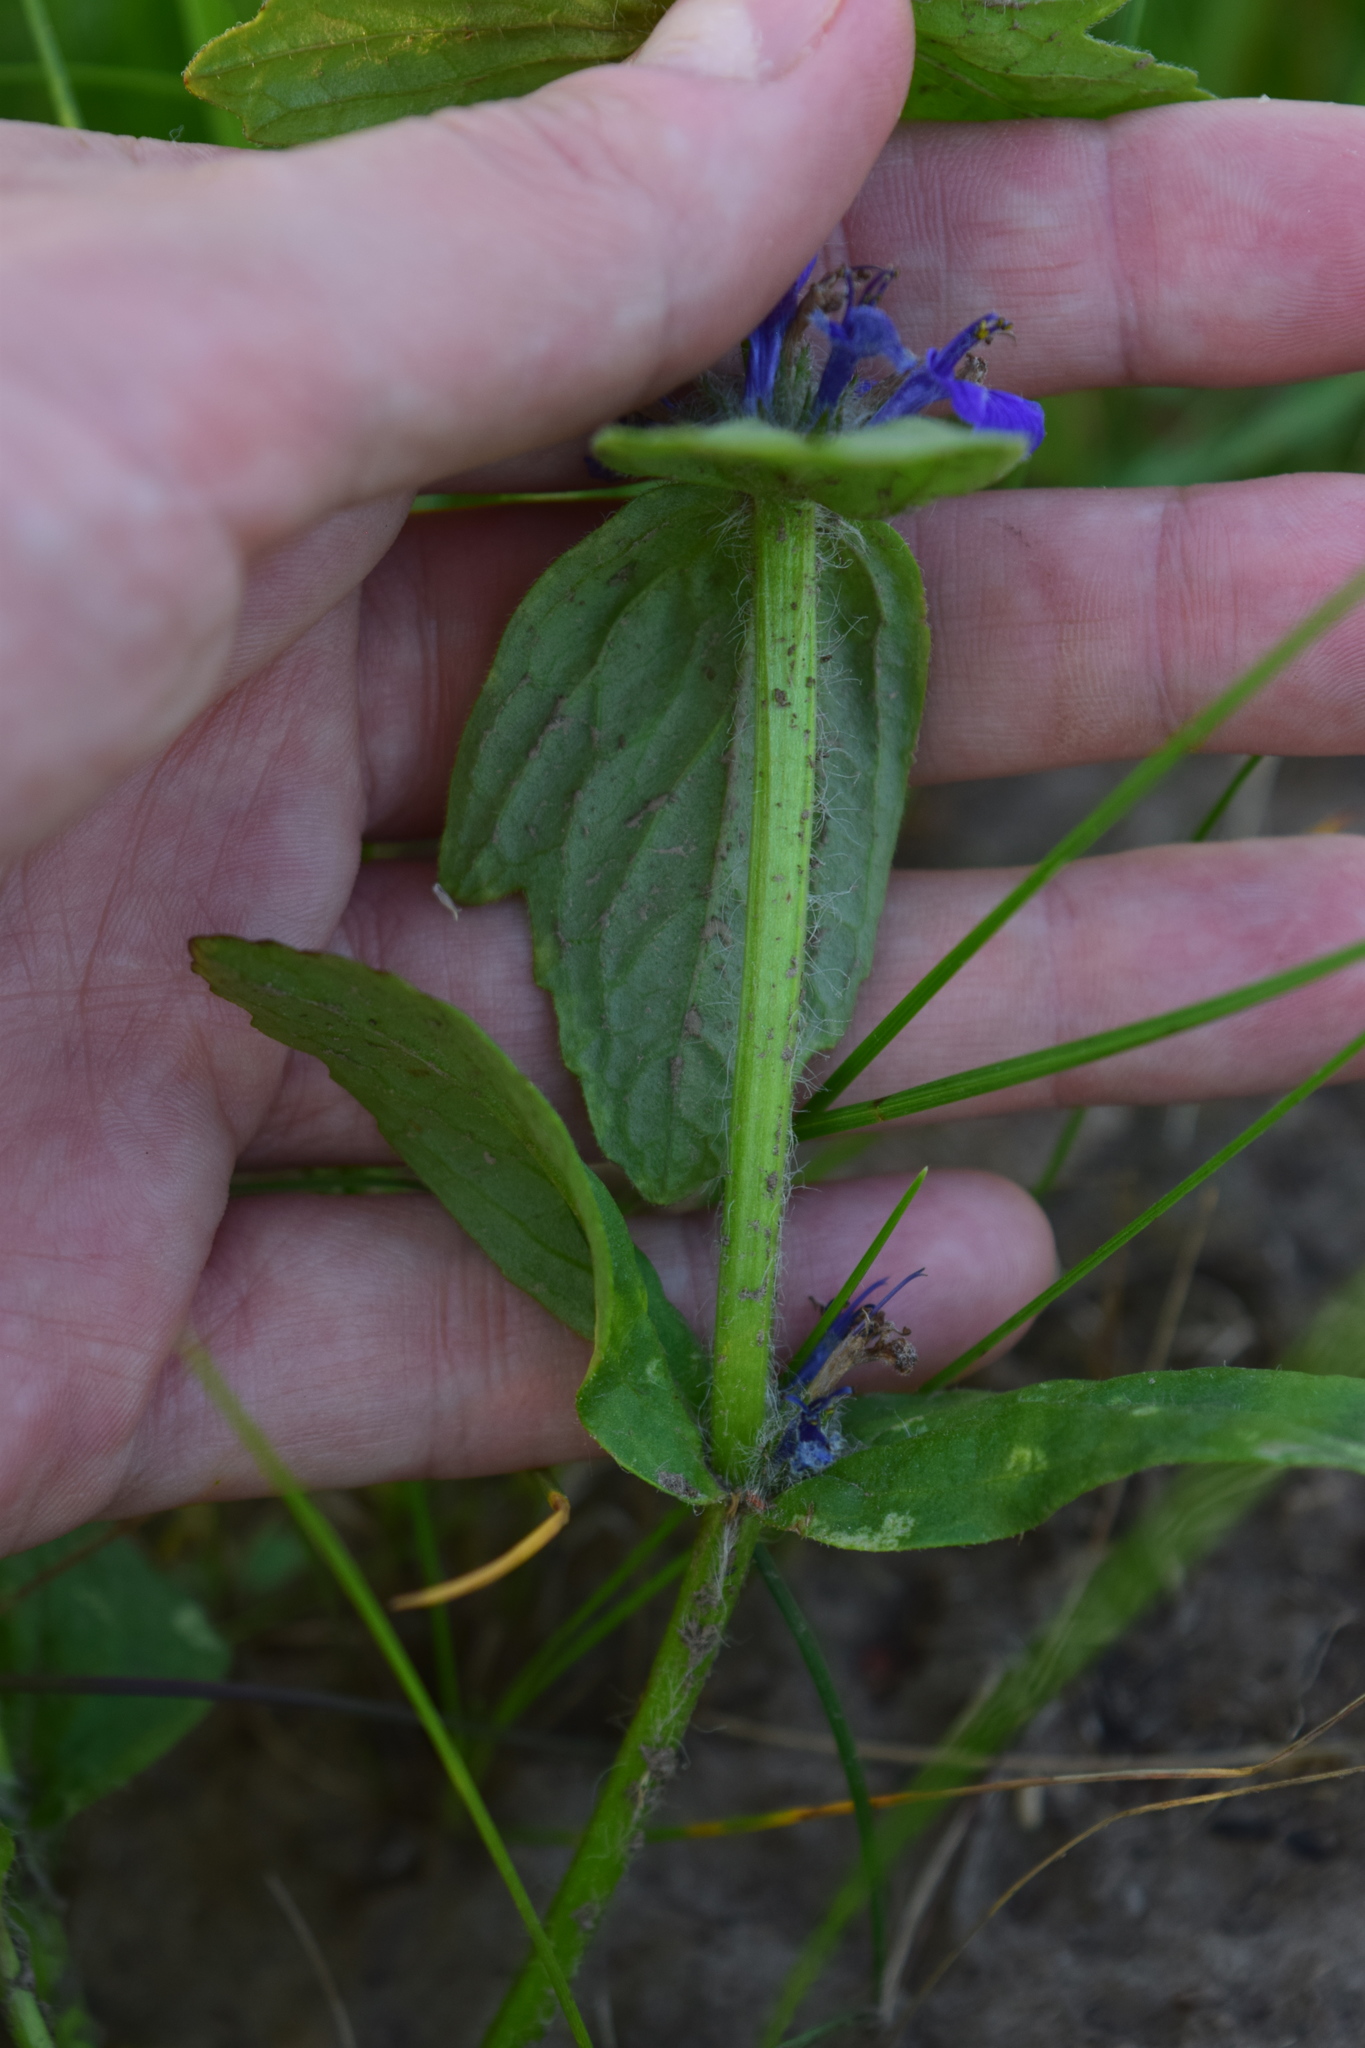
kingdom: Plantae
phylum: Tracheophyta
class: Magnoliopsida
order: Lamiales
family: Lamiaceae
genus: Ajuga
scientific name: Ajuga genevensis
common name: Blue bugle
